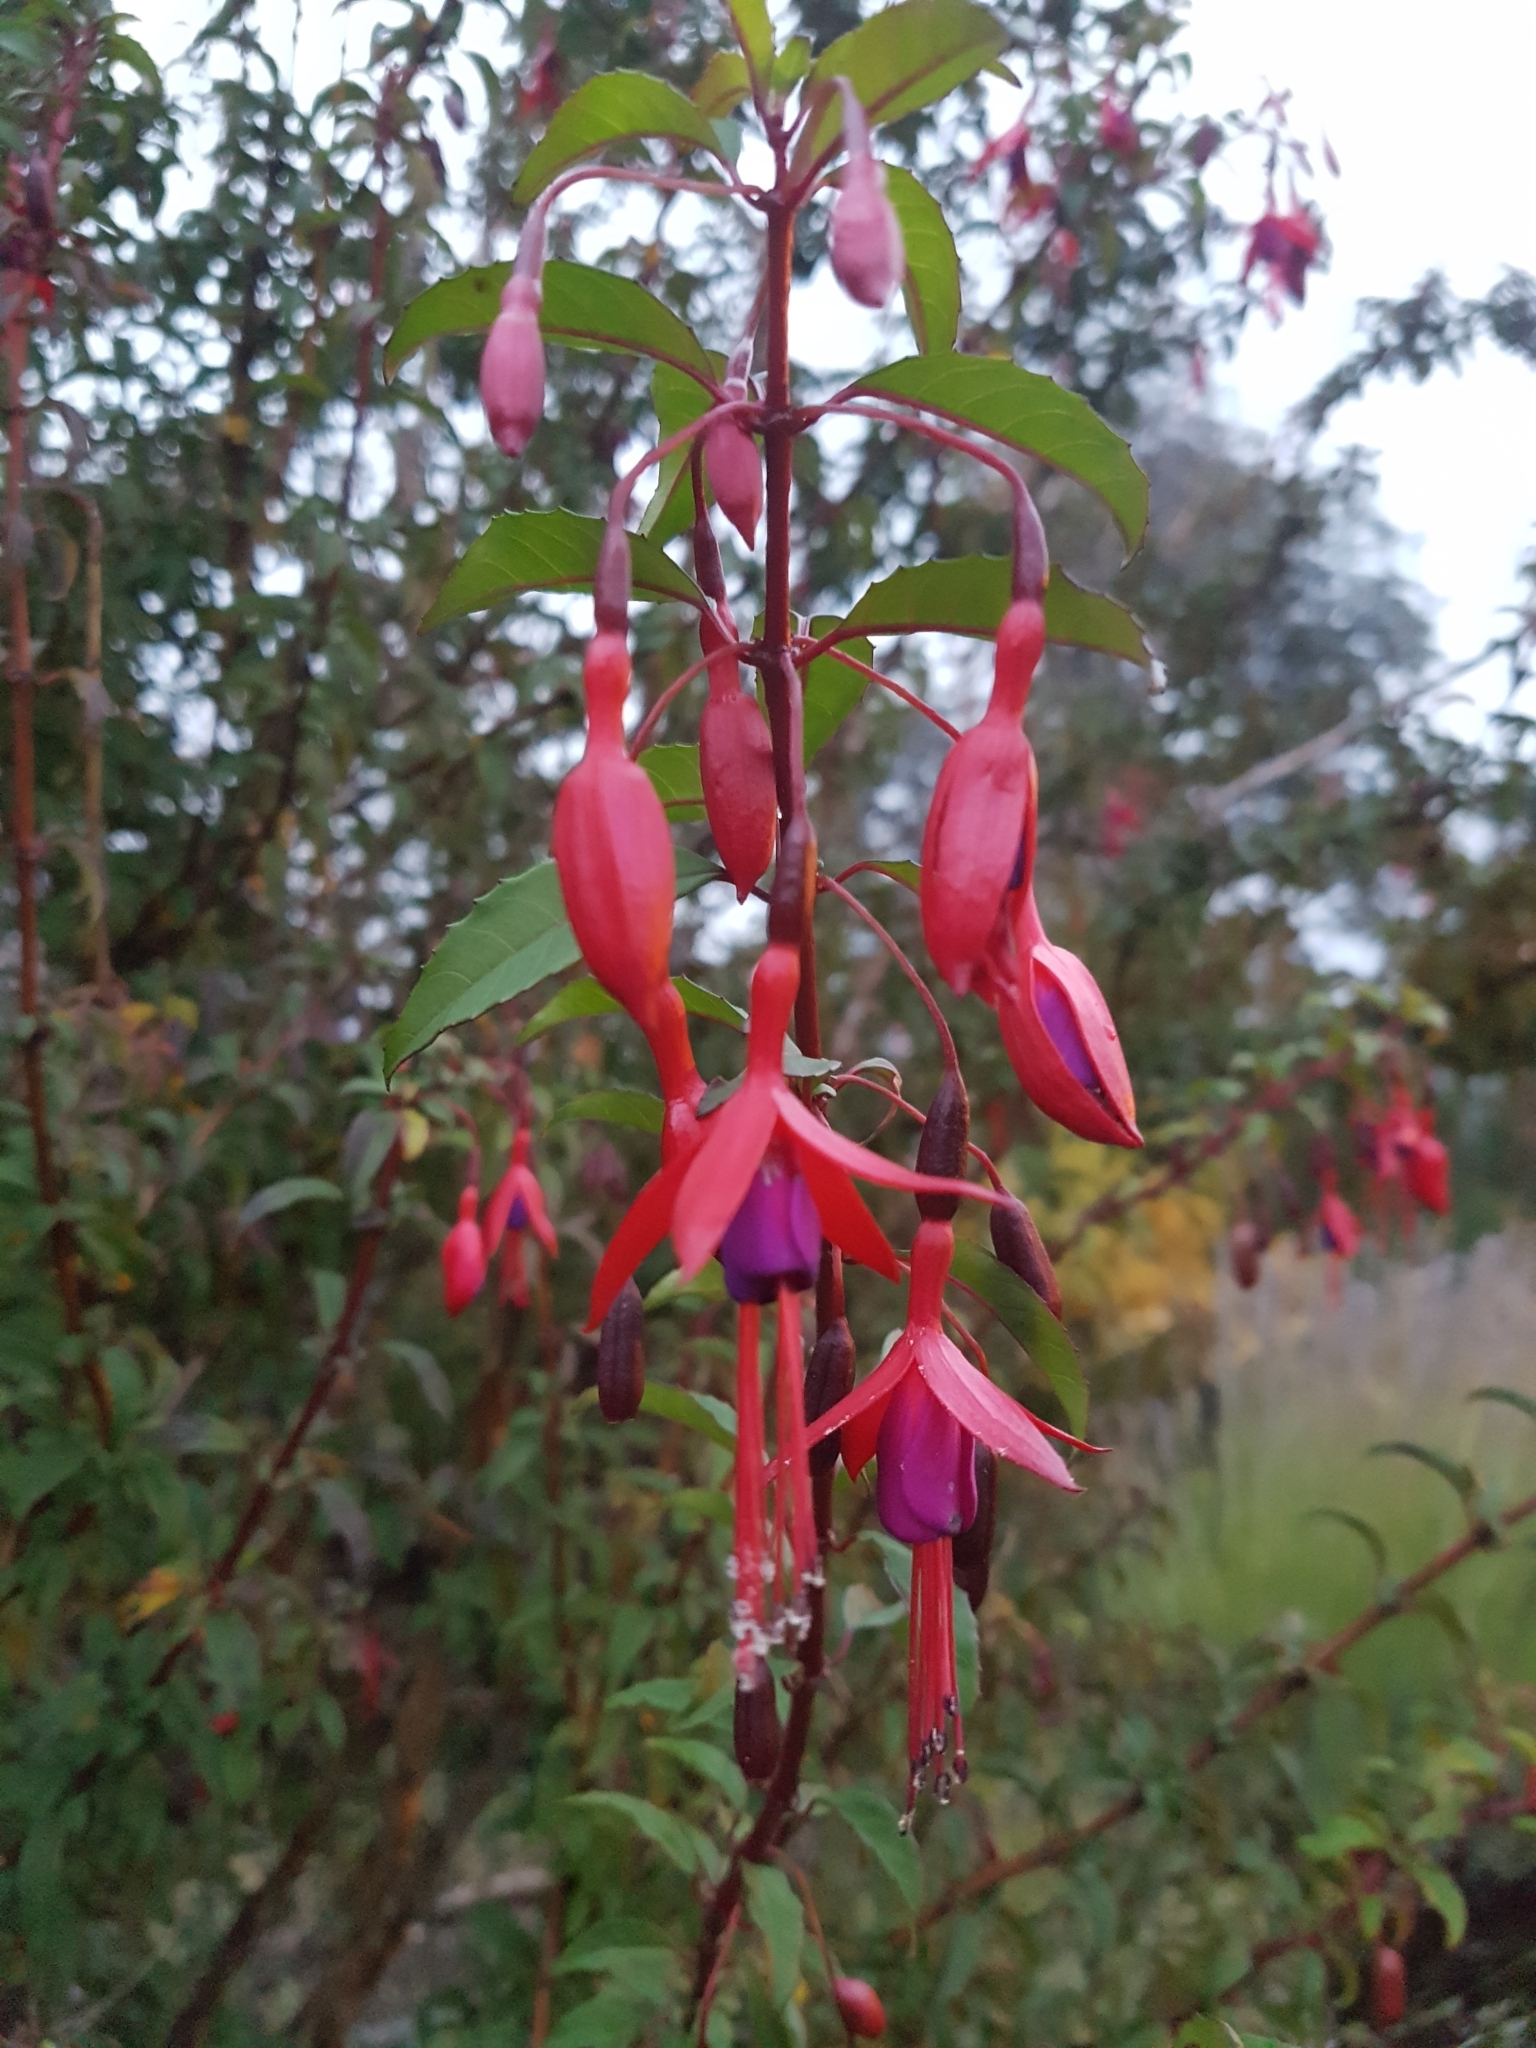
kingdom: Plantae
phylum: Tracheophyta
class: Magnoliopsida
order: Myrtales
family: Onagraceae
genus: Fuchsia
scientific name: Fuchsia magellanica
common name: Hardy fuchsia
